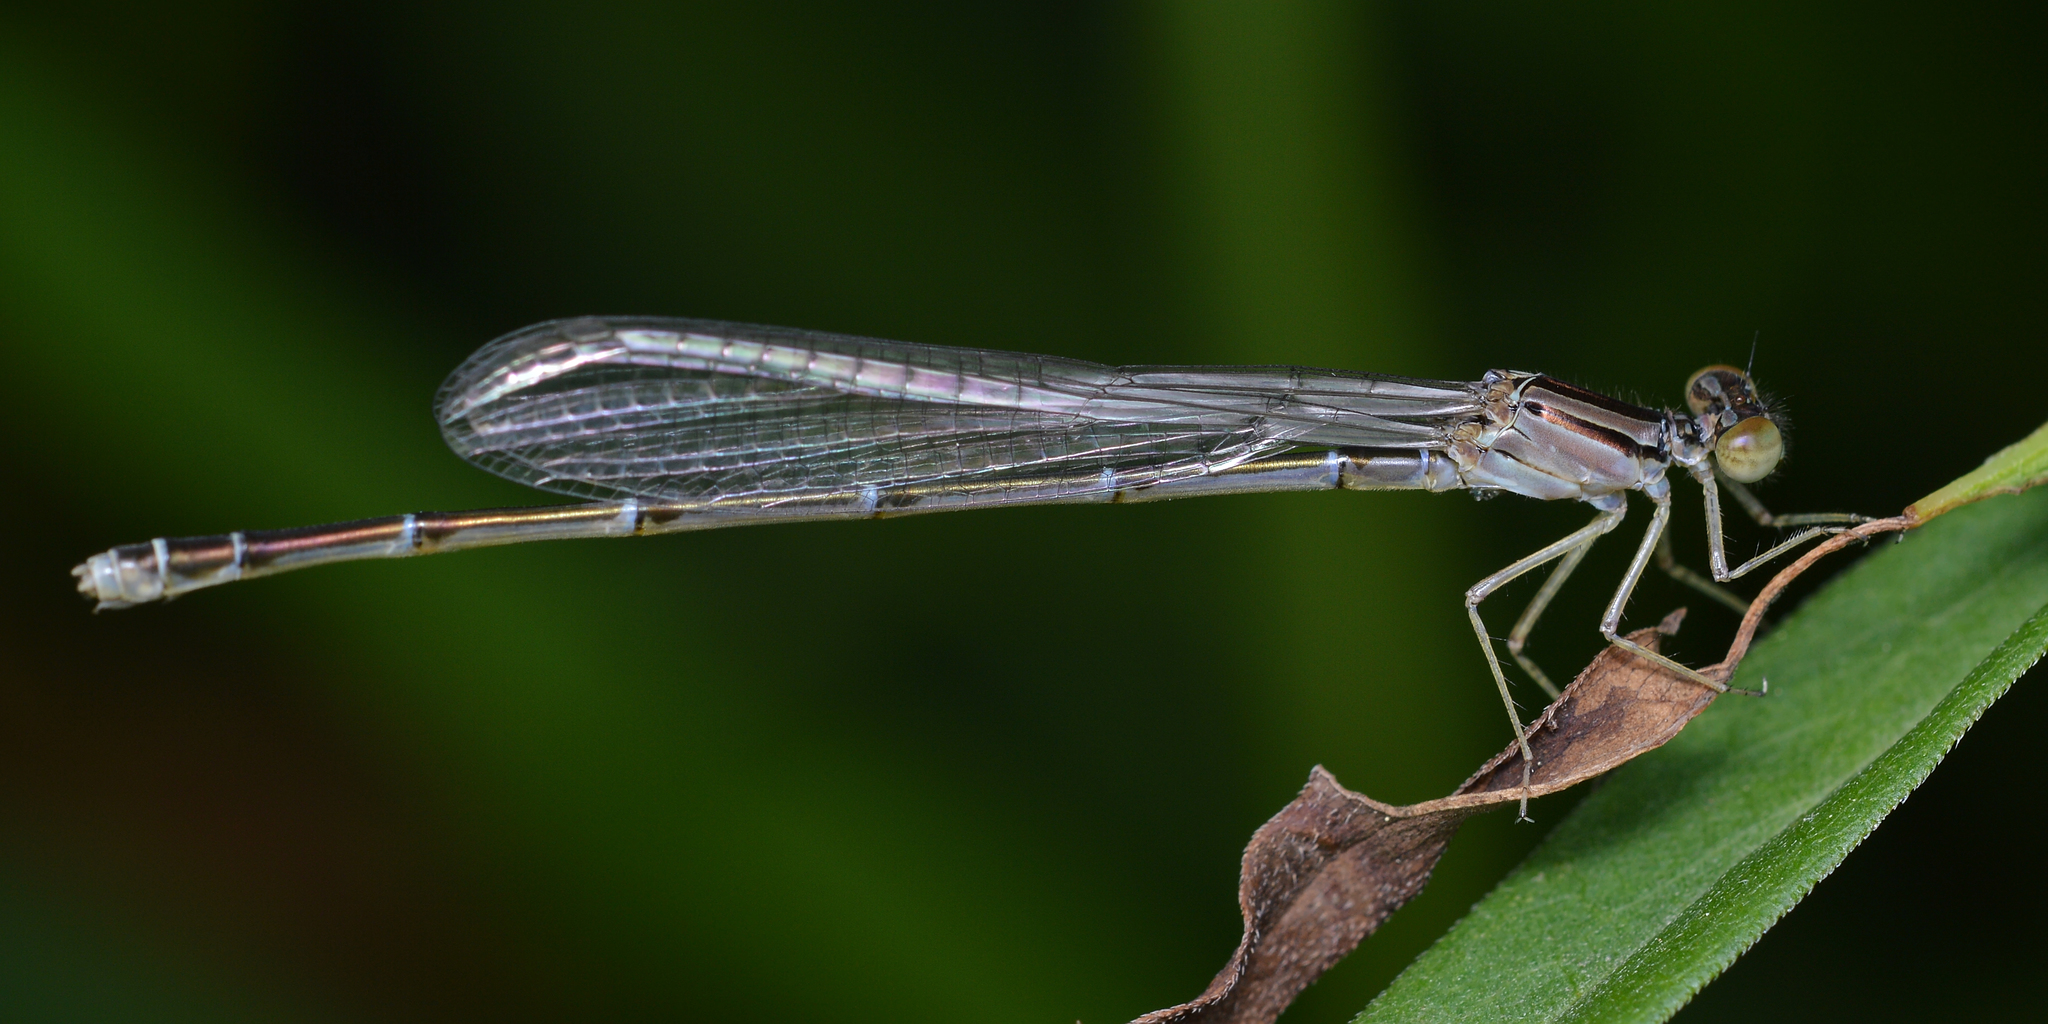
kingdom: Animalia
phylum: Arthropoda
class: Insecta
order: Odonata
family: Coenagrionidae
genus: Enallagma
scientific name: Enallagma signatum
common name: Orange bluet
